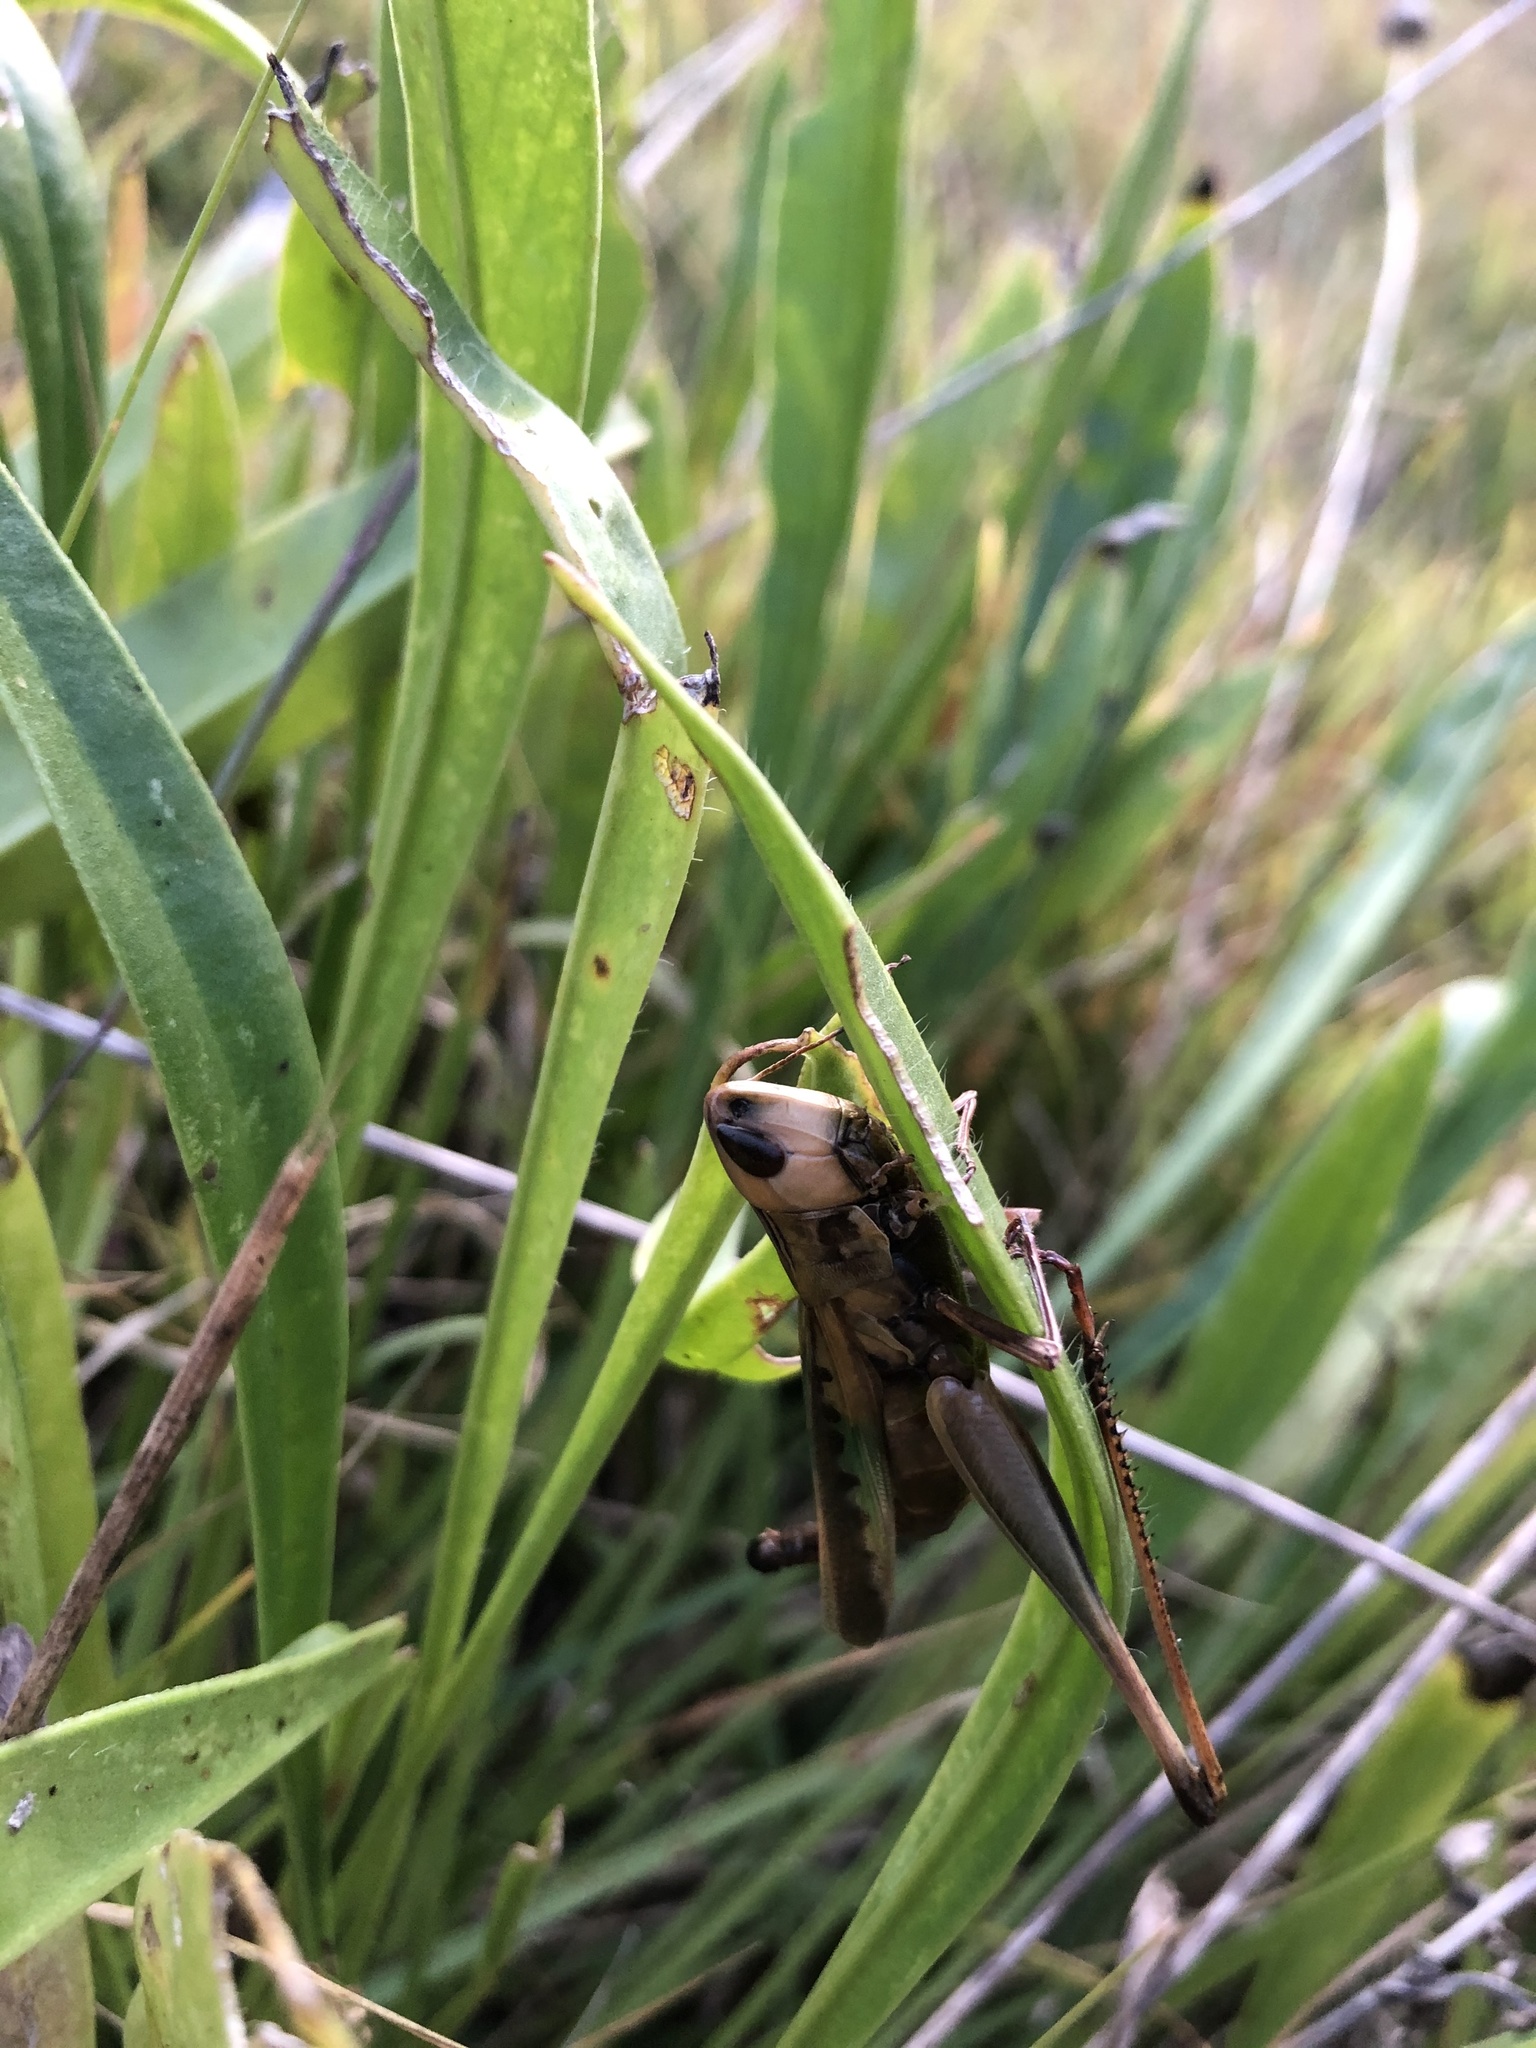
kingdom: Animalia
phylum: Arthropoda
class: Insecta
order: Orthoptera
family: Acrididae
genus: Syrbula
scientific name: Syrbula admirabilis
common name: Handsome grasshopper
